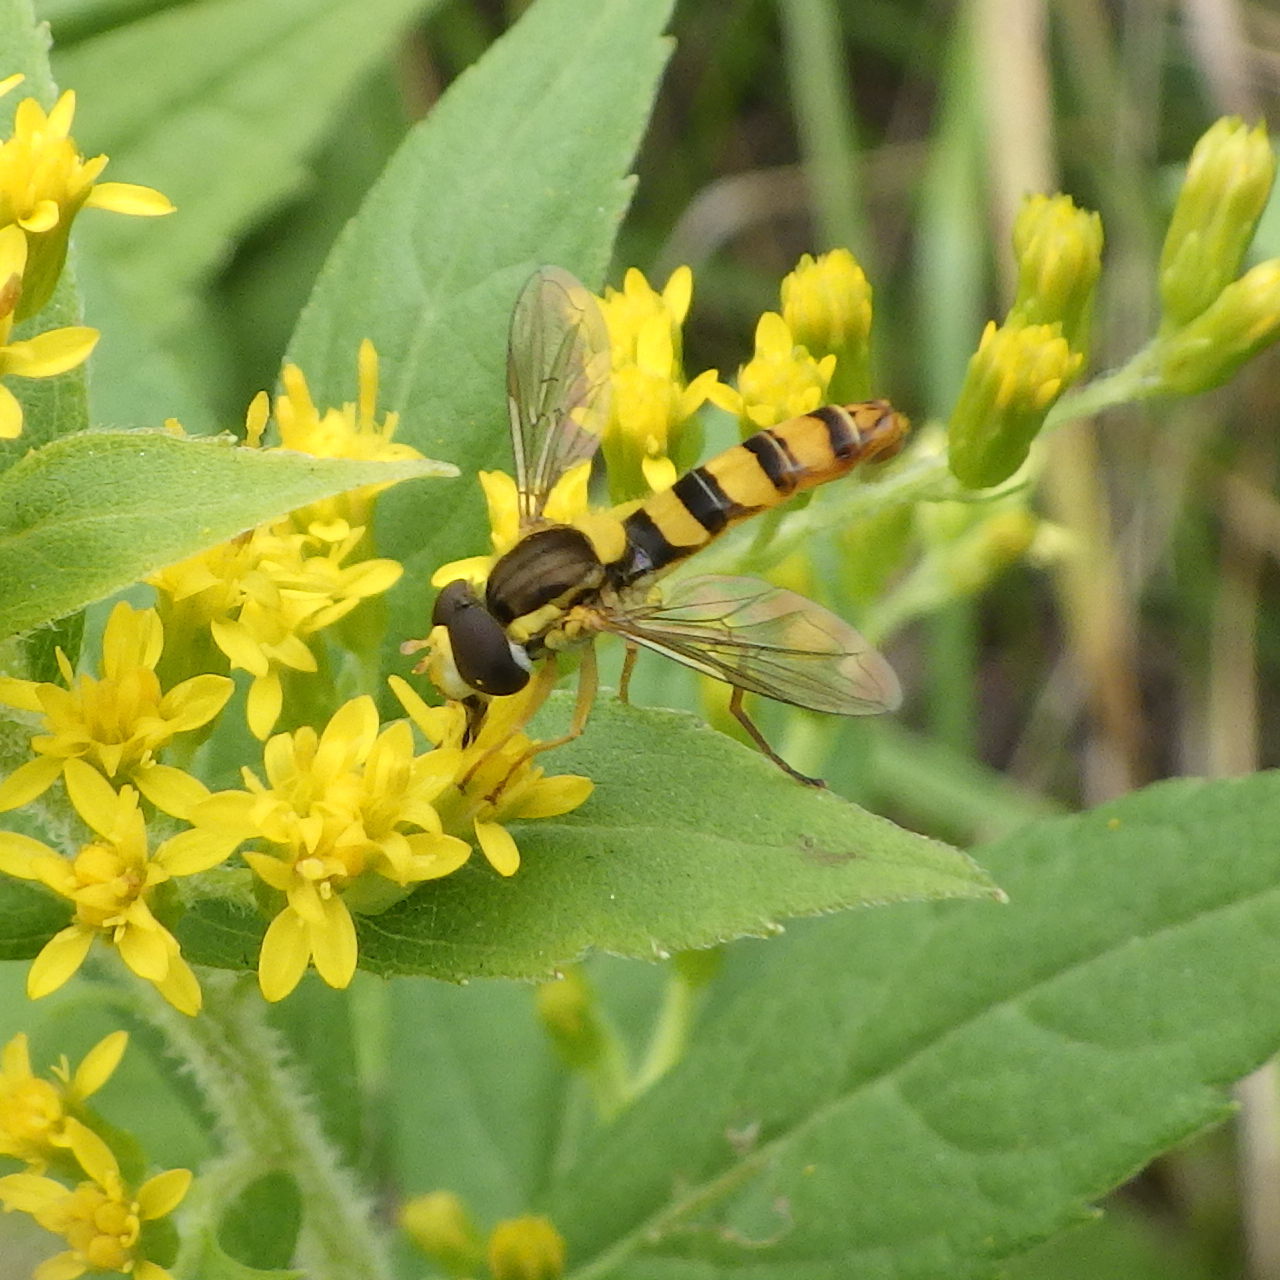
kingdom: Animalia
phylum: Arthropoda
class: Insecta
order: Diptera
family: Syrphidae
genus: Sphaerophoria
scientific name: Sphaerophoria philantha
